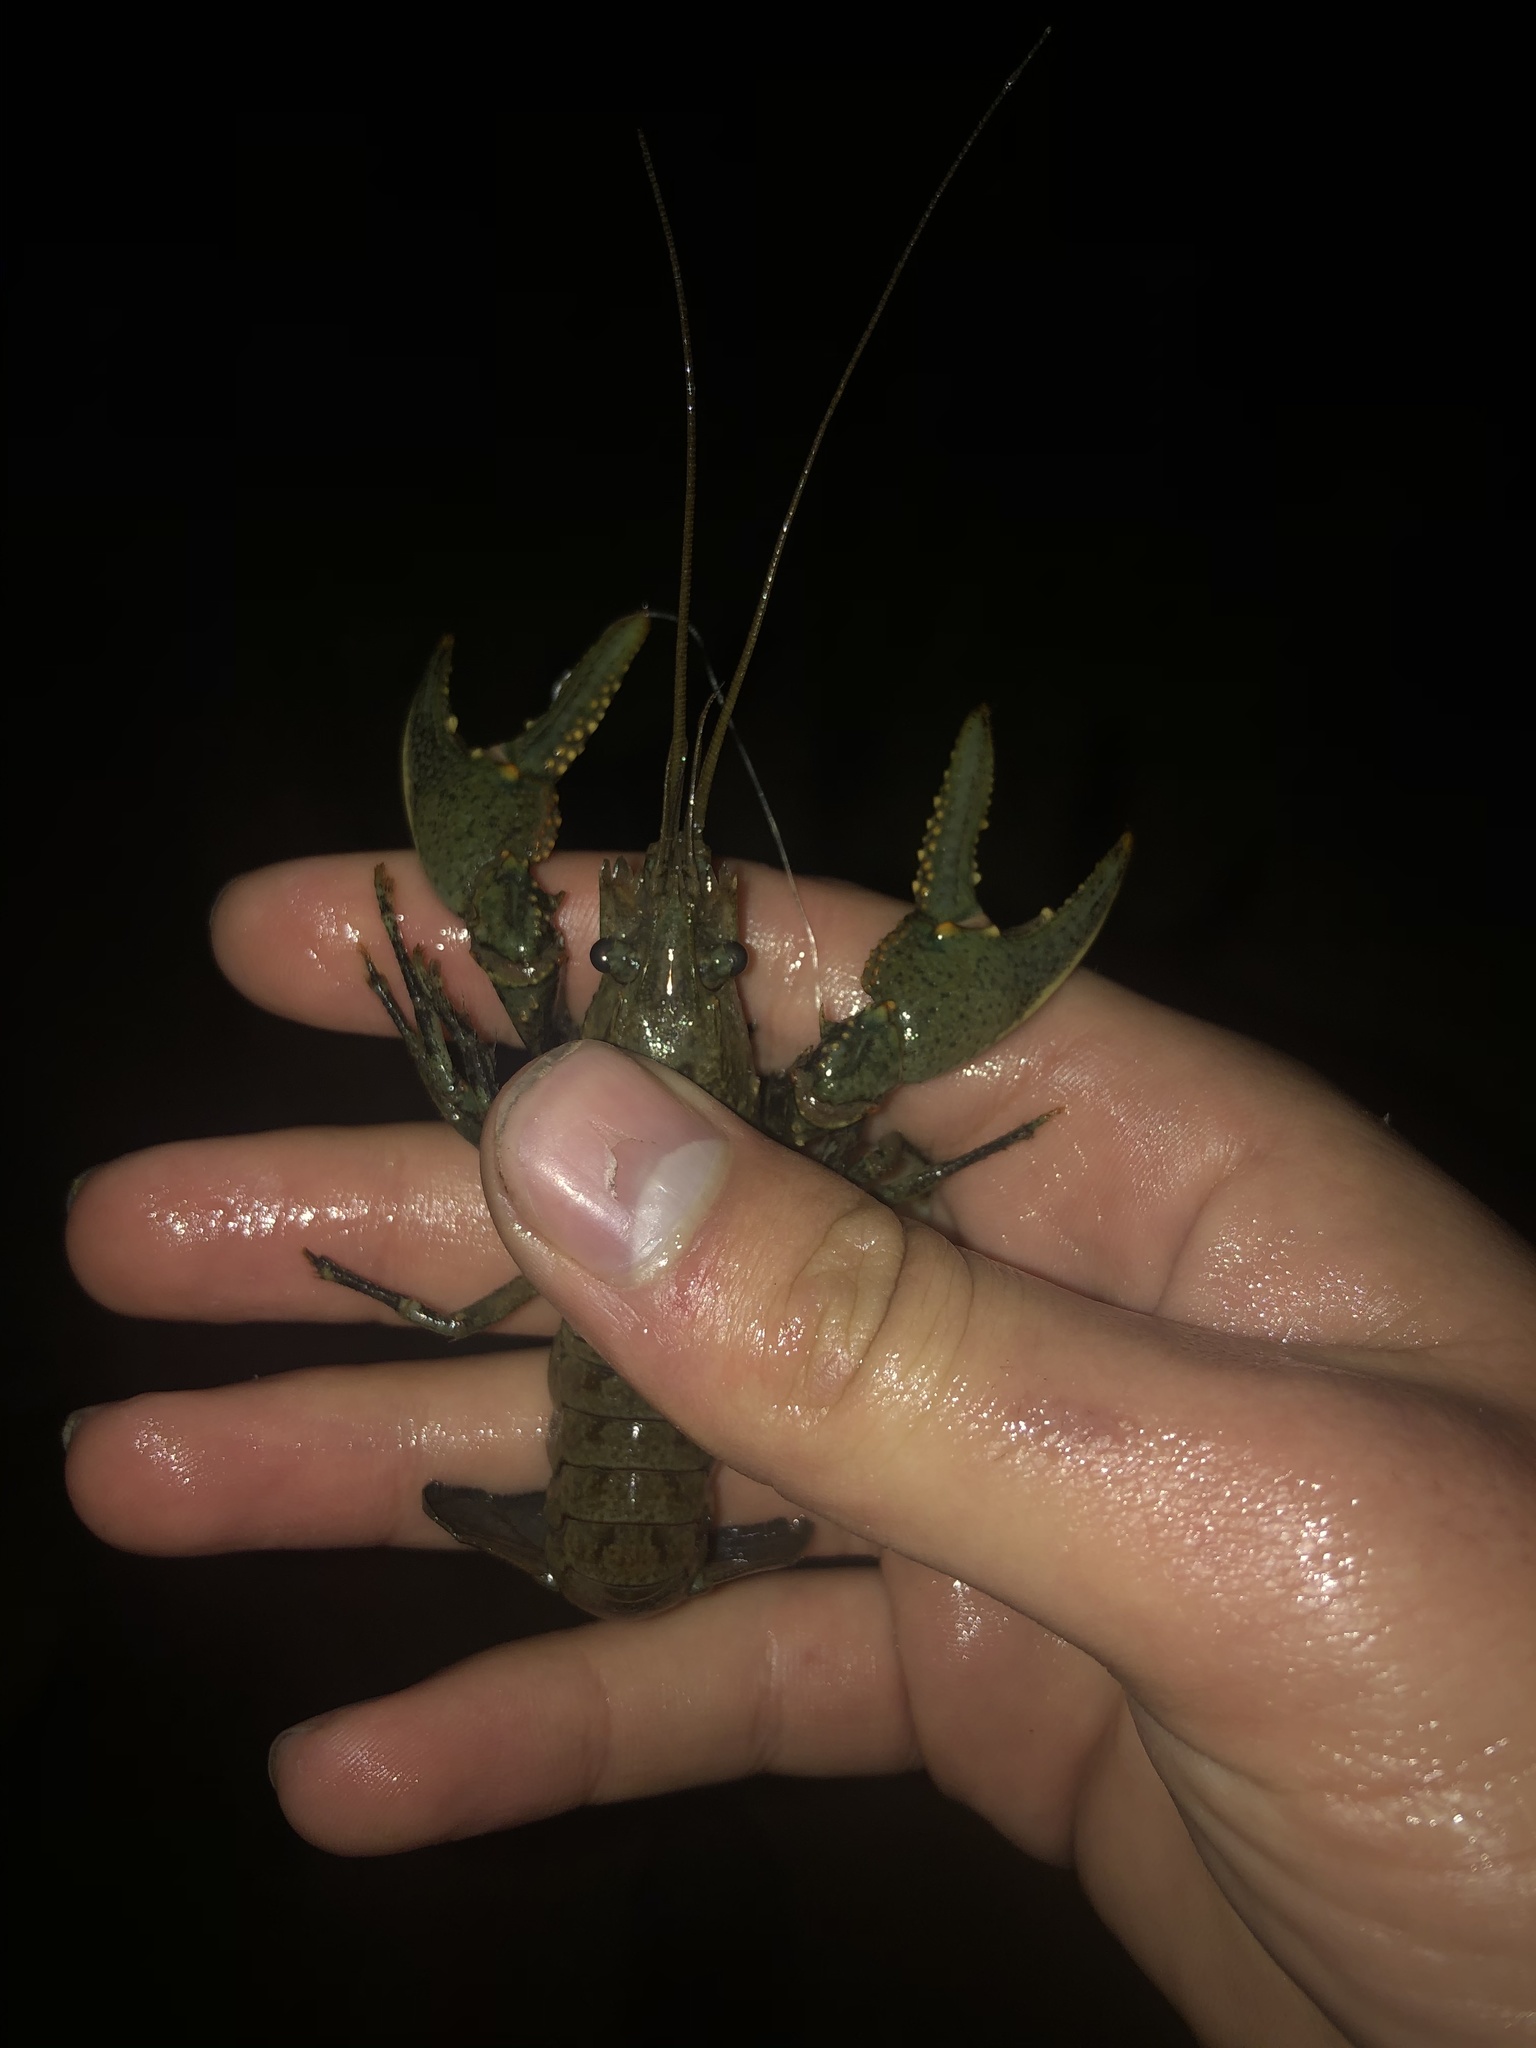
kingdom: Animalia
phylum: Arthropoda
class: Malacostraca
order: Decapoda
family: Cambaridae
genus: Faxonius
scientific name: Faxonius virilis
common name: Virile crayfish
